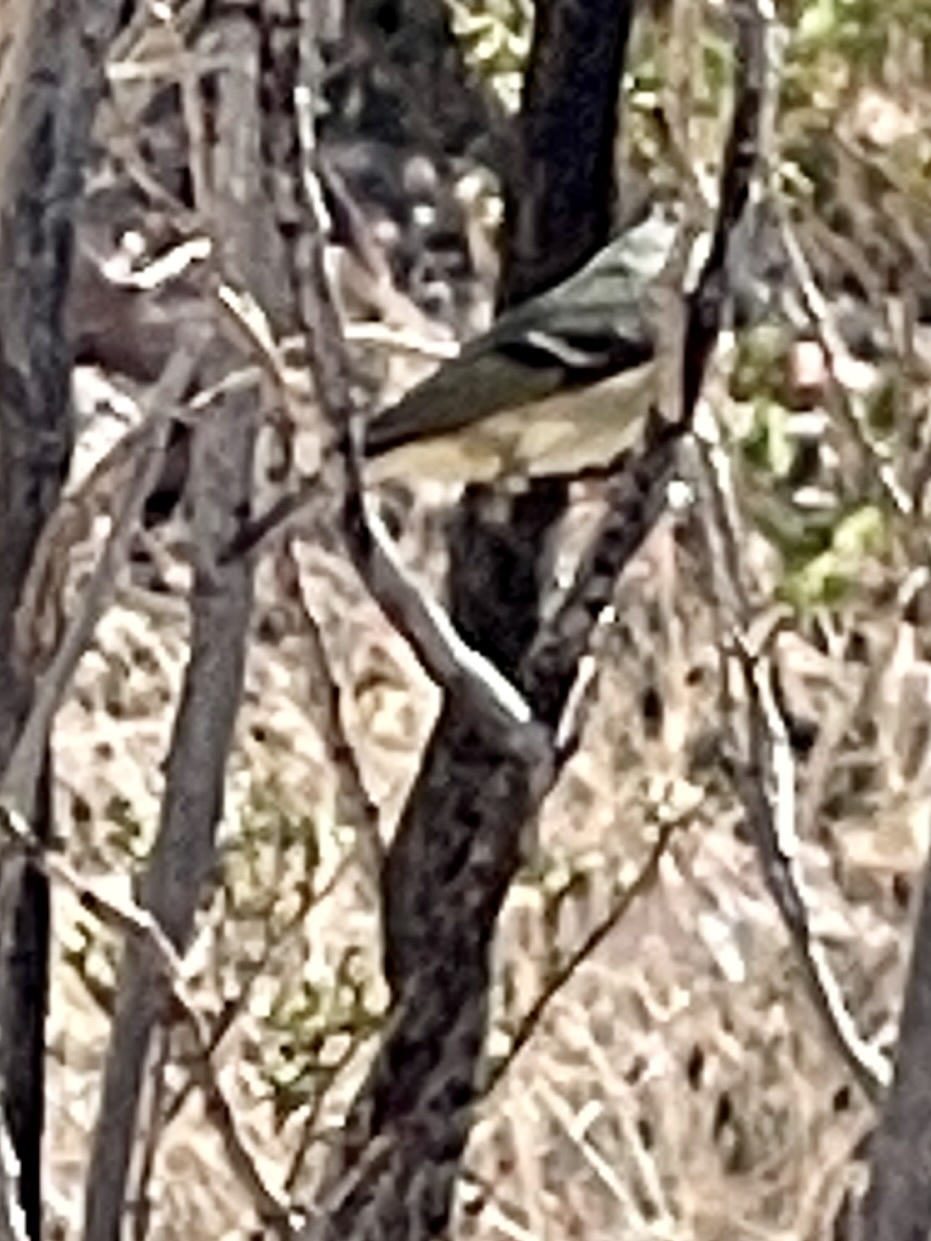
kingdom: Animalia
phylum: Chordata
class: Aves
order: Passeriformes
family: Regulidae
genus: Regulus
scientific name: Regulus calendula
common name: Ruby-crowned kinglet
